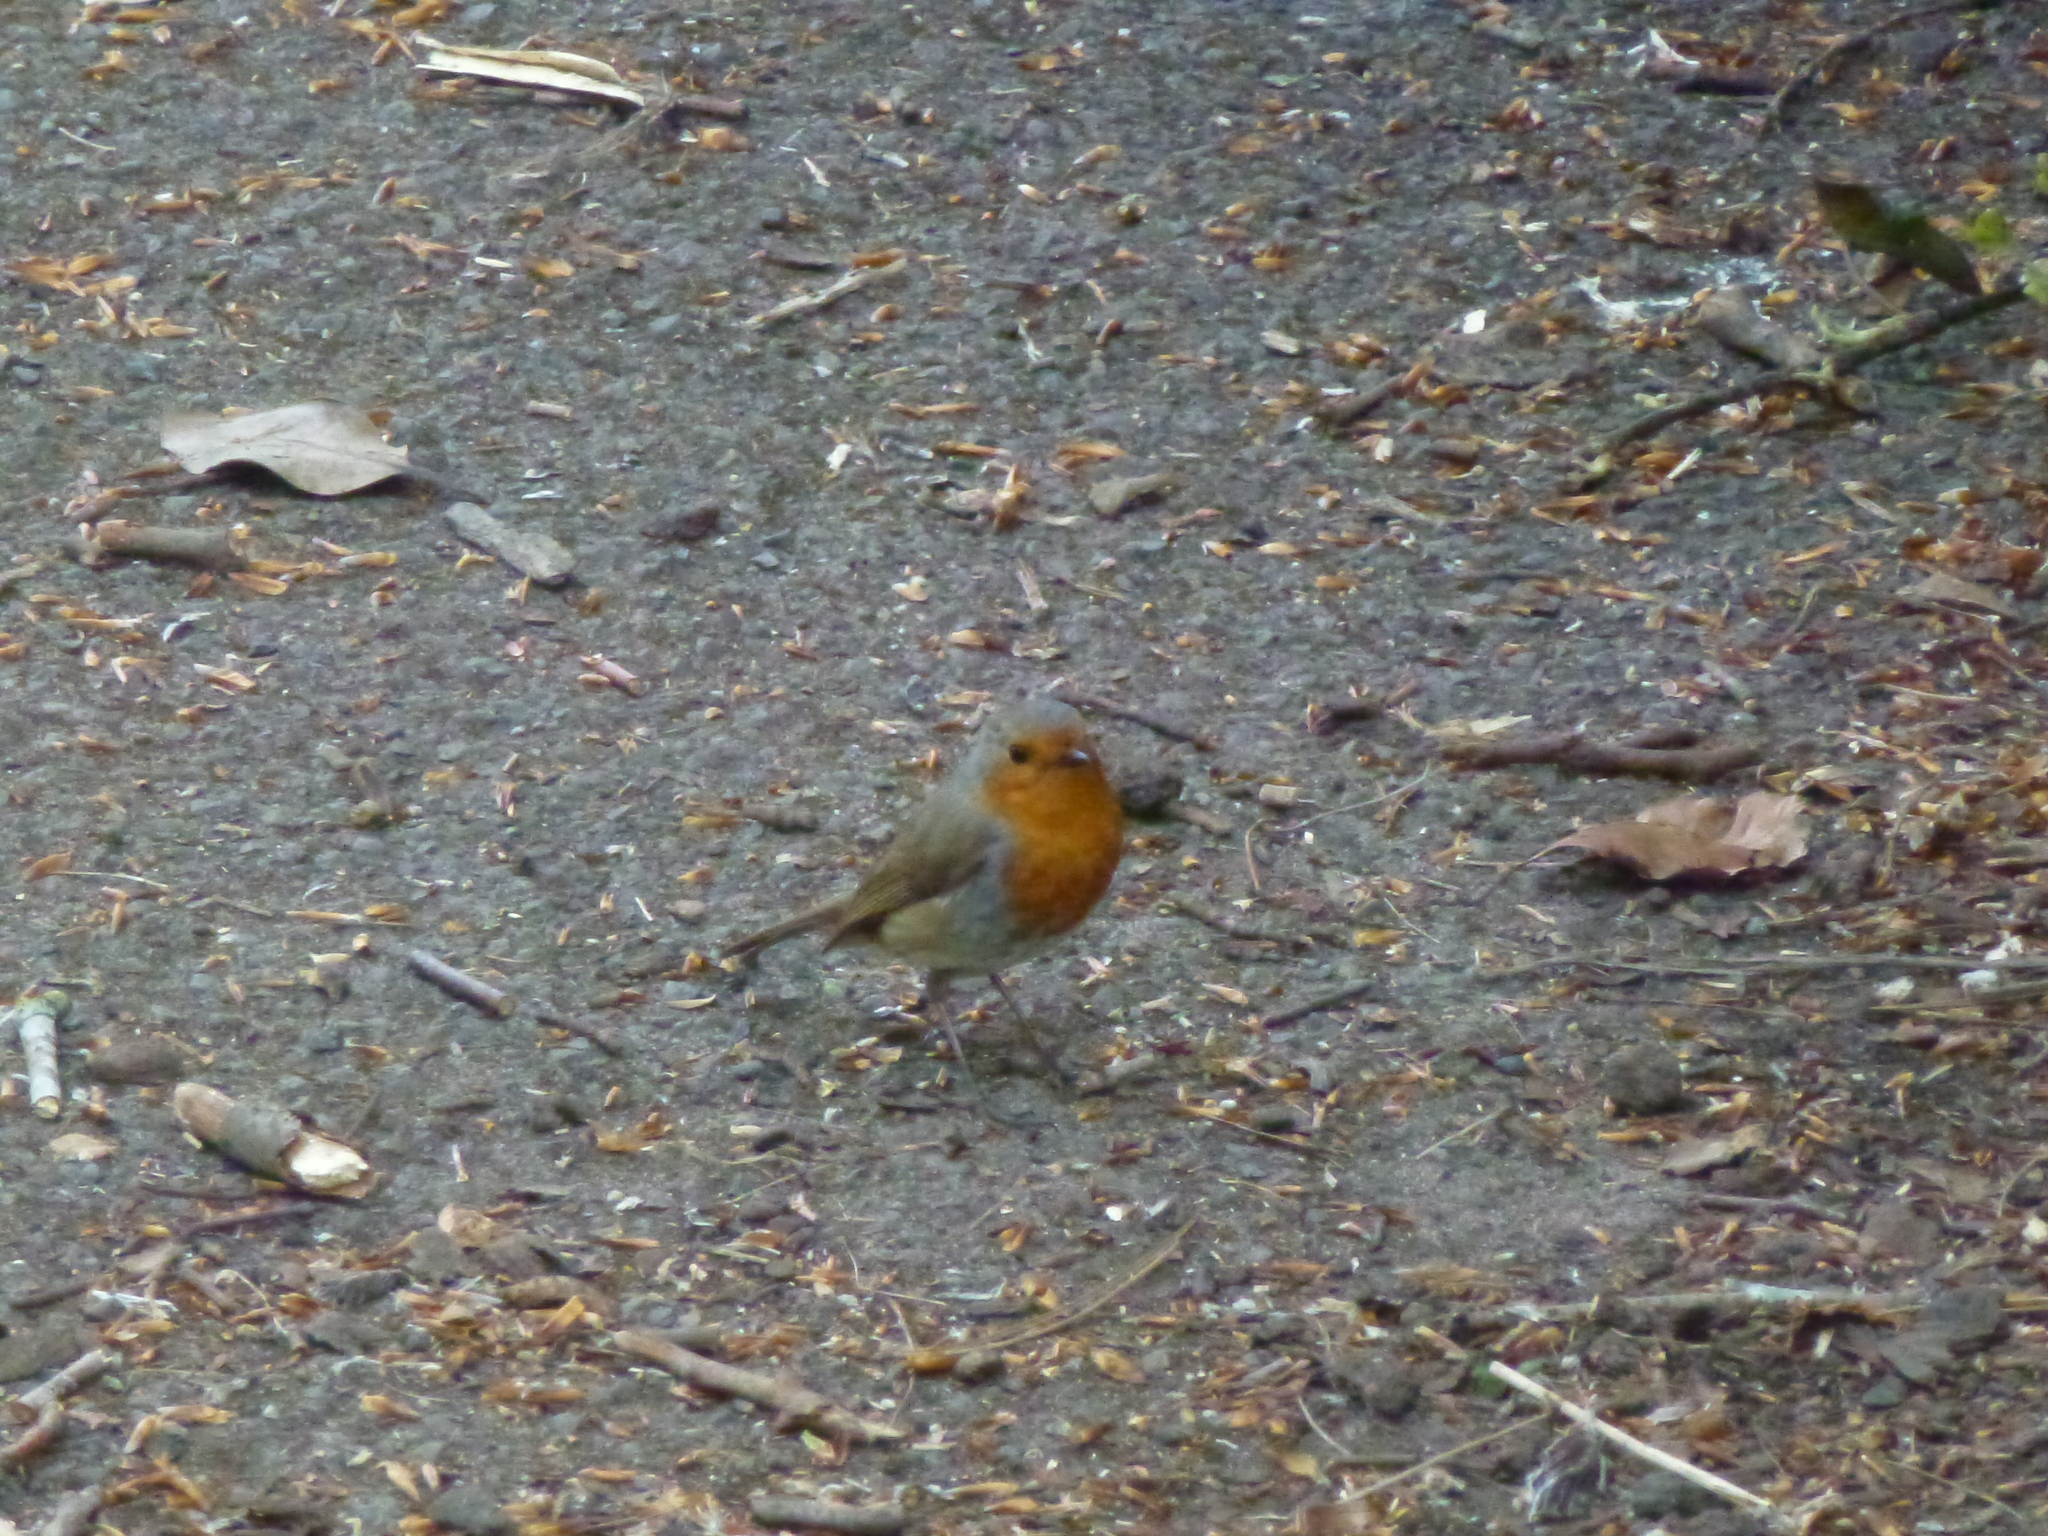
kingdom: Animalia
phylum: Chordata
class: Aves
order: Passeriformes
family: Muscicapidae
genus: Erithacus
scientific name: Erithacus rubecula
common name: European robin
